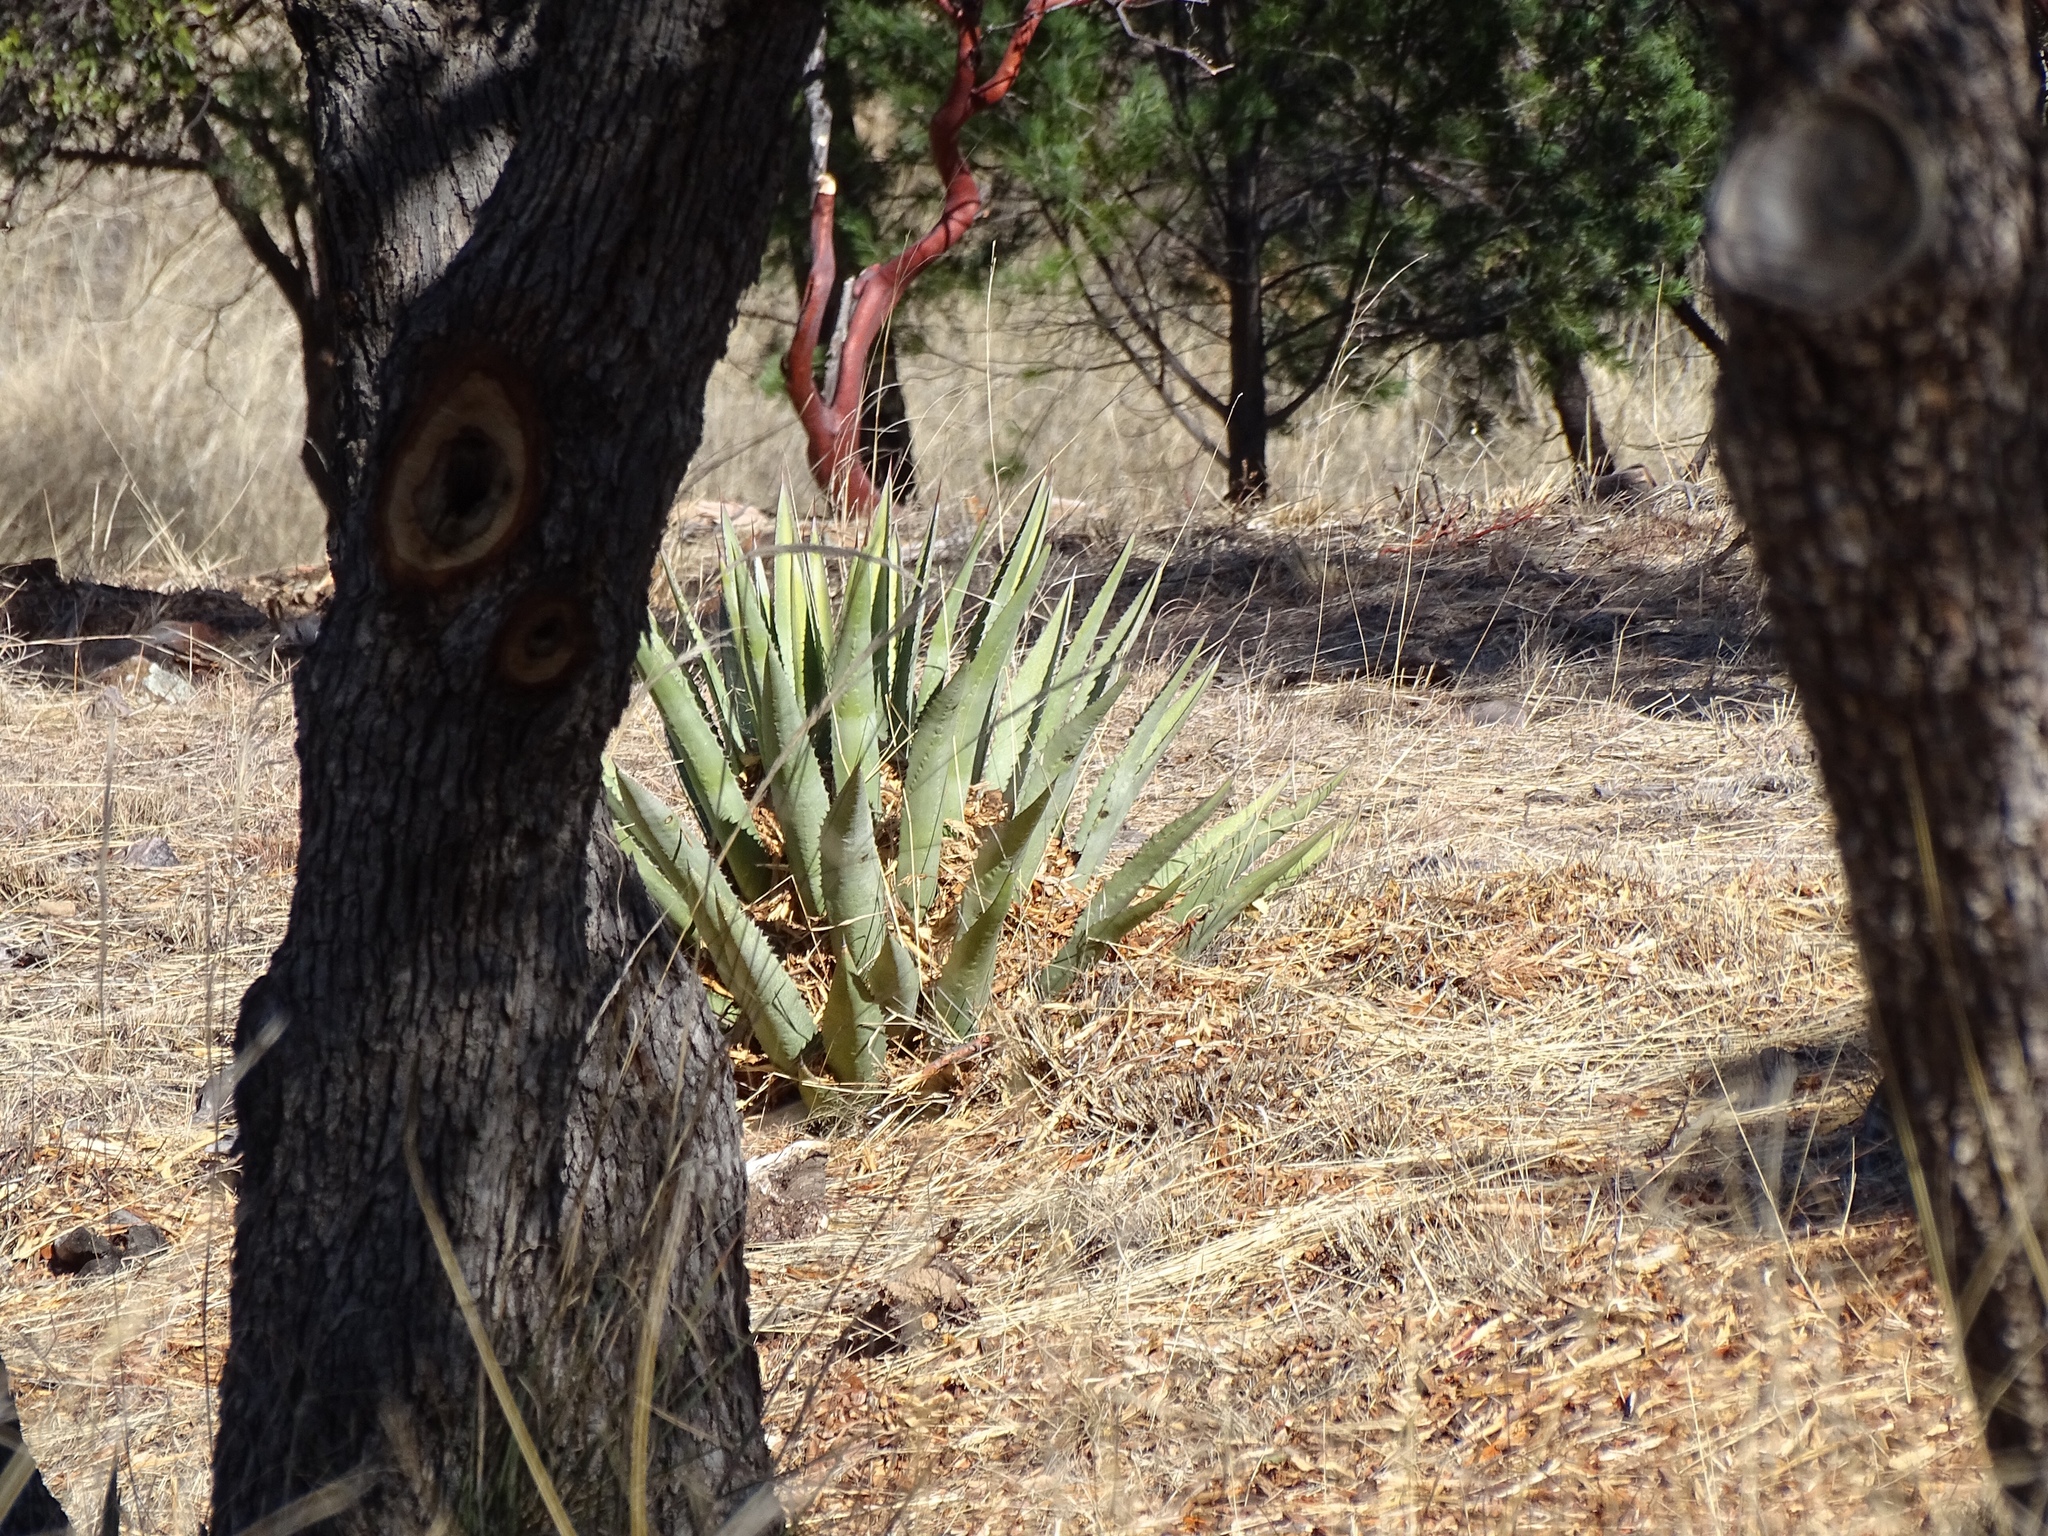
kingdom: Plantae
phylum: Tracheophyta
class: Liliopsida
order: Asparagales
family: Asparagaceae
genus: Agave
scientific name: Agave palmeri
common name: Palmer agave
